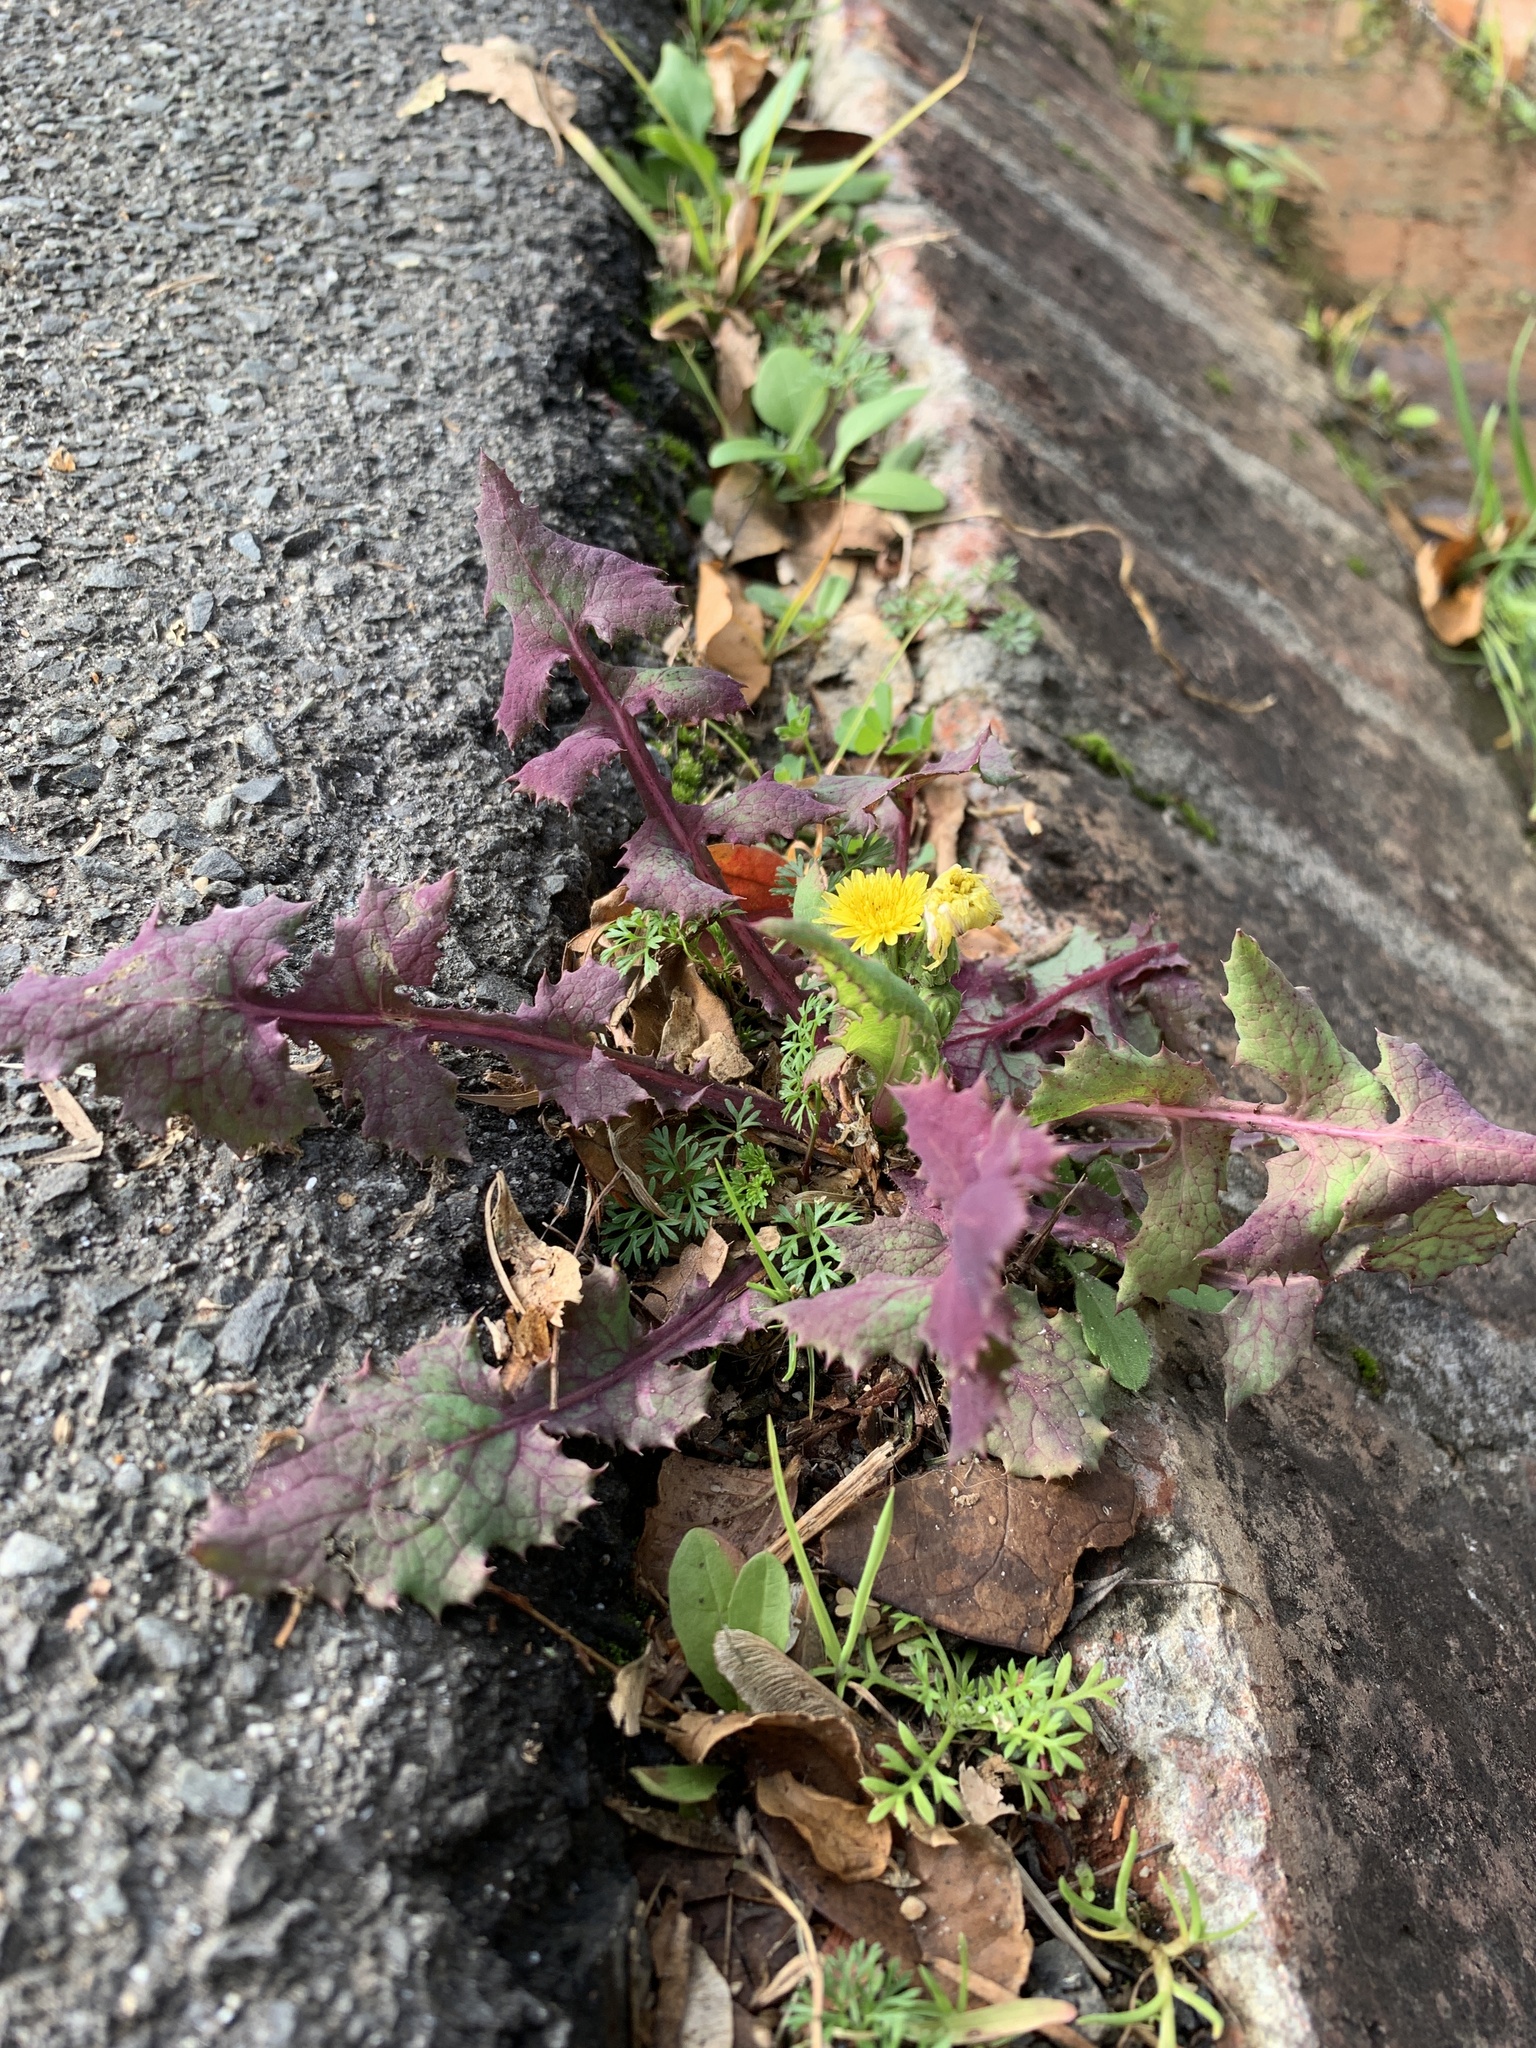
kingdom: Plantae
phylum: Tracheophyta
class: Magnoliopsida
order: Asterales
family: Asteraceae
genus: Sonchus
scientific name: Sonchus oleraceus
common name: Common sowthistle
